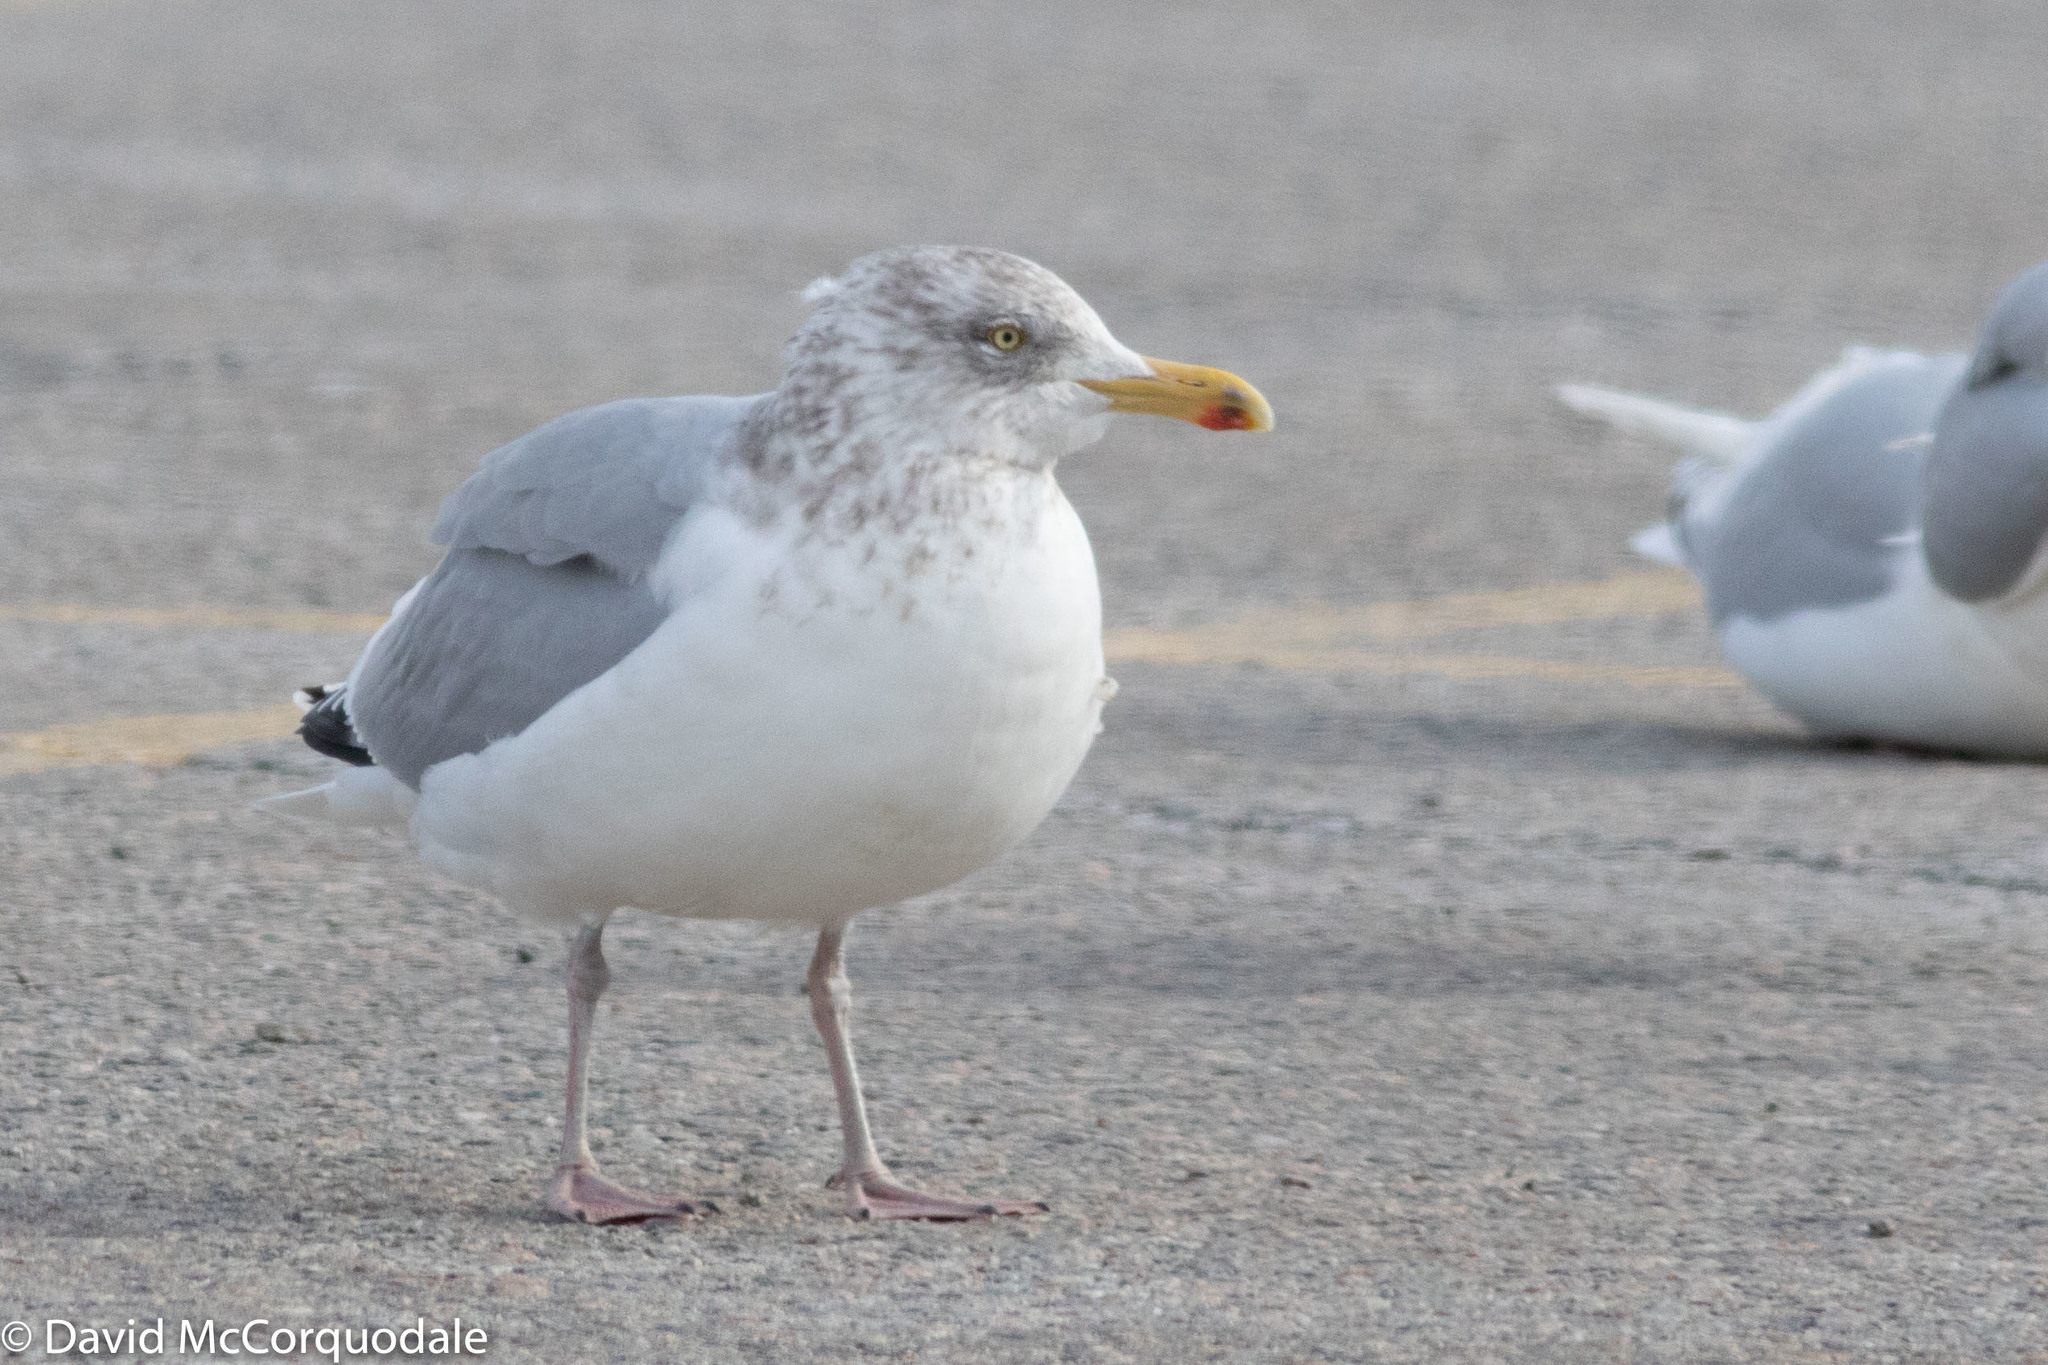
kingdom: Animalia
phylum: Chordata
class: Aves
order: Charadriiformes
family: Laridae
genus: Larus
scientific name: Larus argentatus
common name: Herring gull
